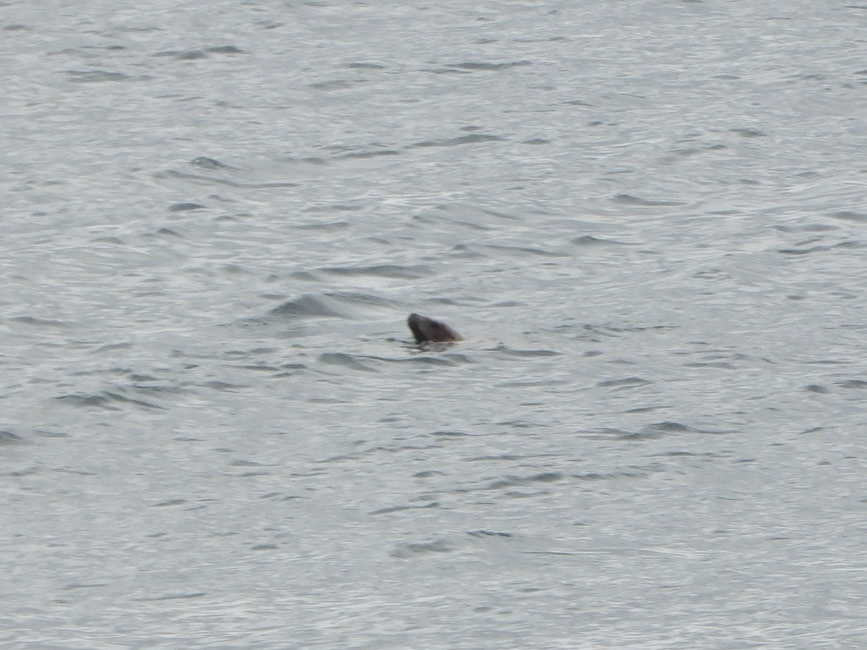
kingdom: Animalia
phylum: Chordata
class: Mammalia
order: Carnivora
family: Otariidae
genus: Eumetopias
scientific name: Eumetopias jubatus
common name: Steller sea lion
